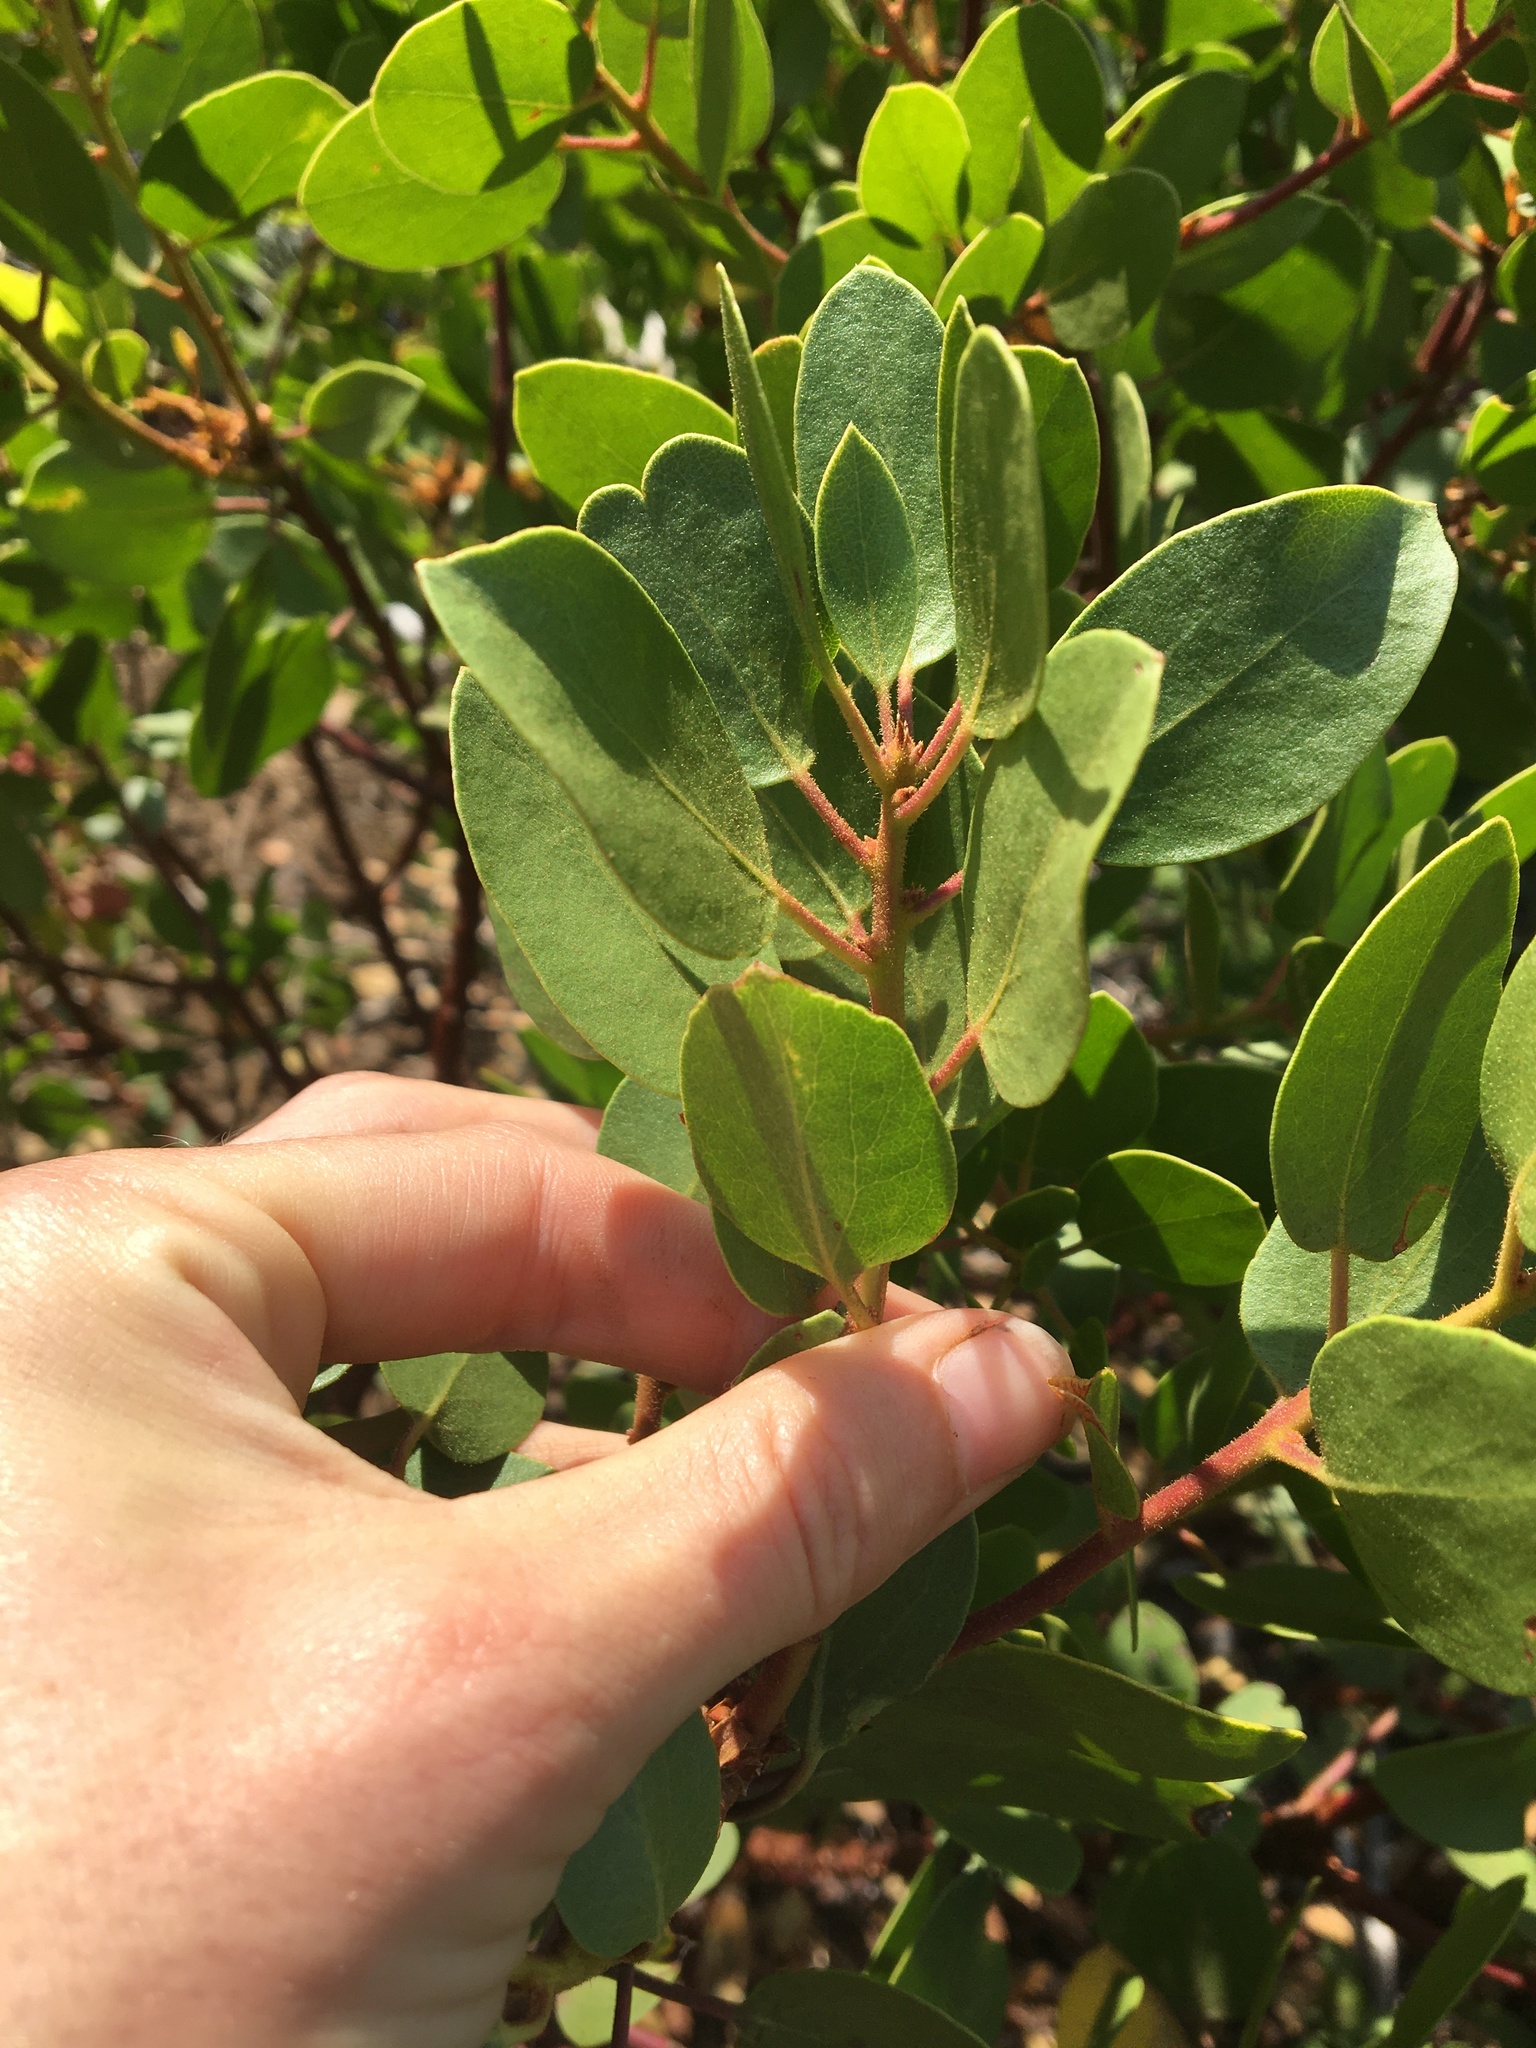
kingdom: Plantae
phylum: Tracheophyta
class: Magnoliopsida
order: Ericales
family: Ericaceae
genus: Arctostaphylos
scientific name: Arctostaphylos patula
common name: Green-leaf manzanita
